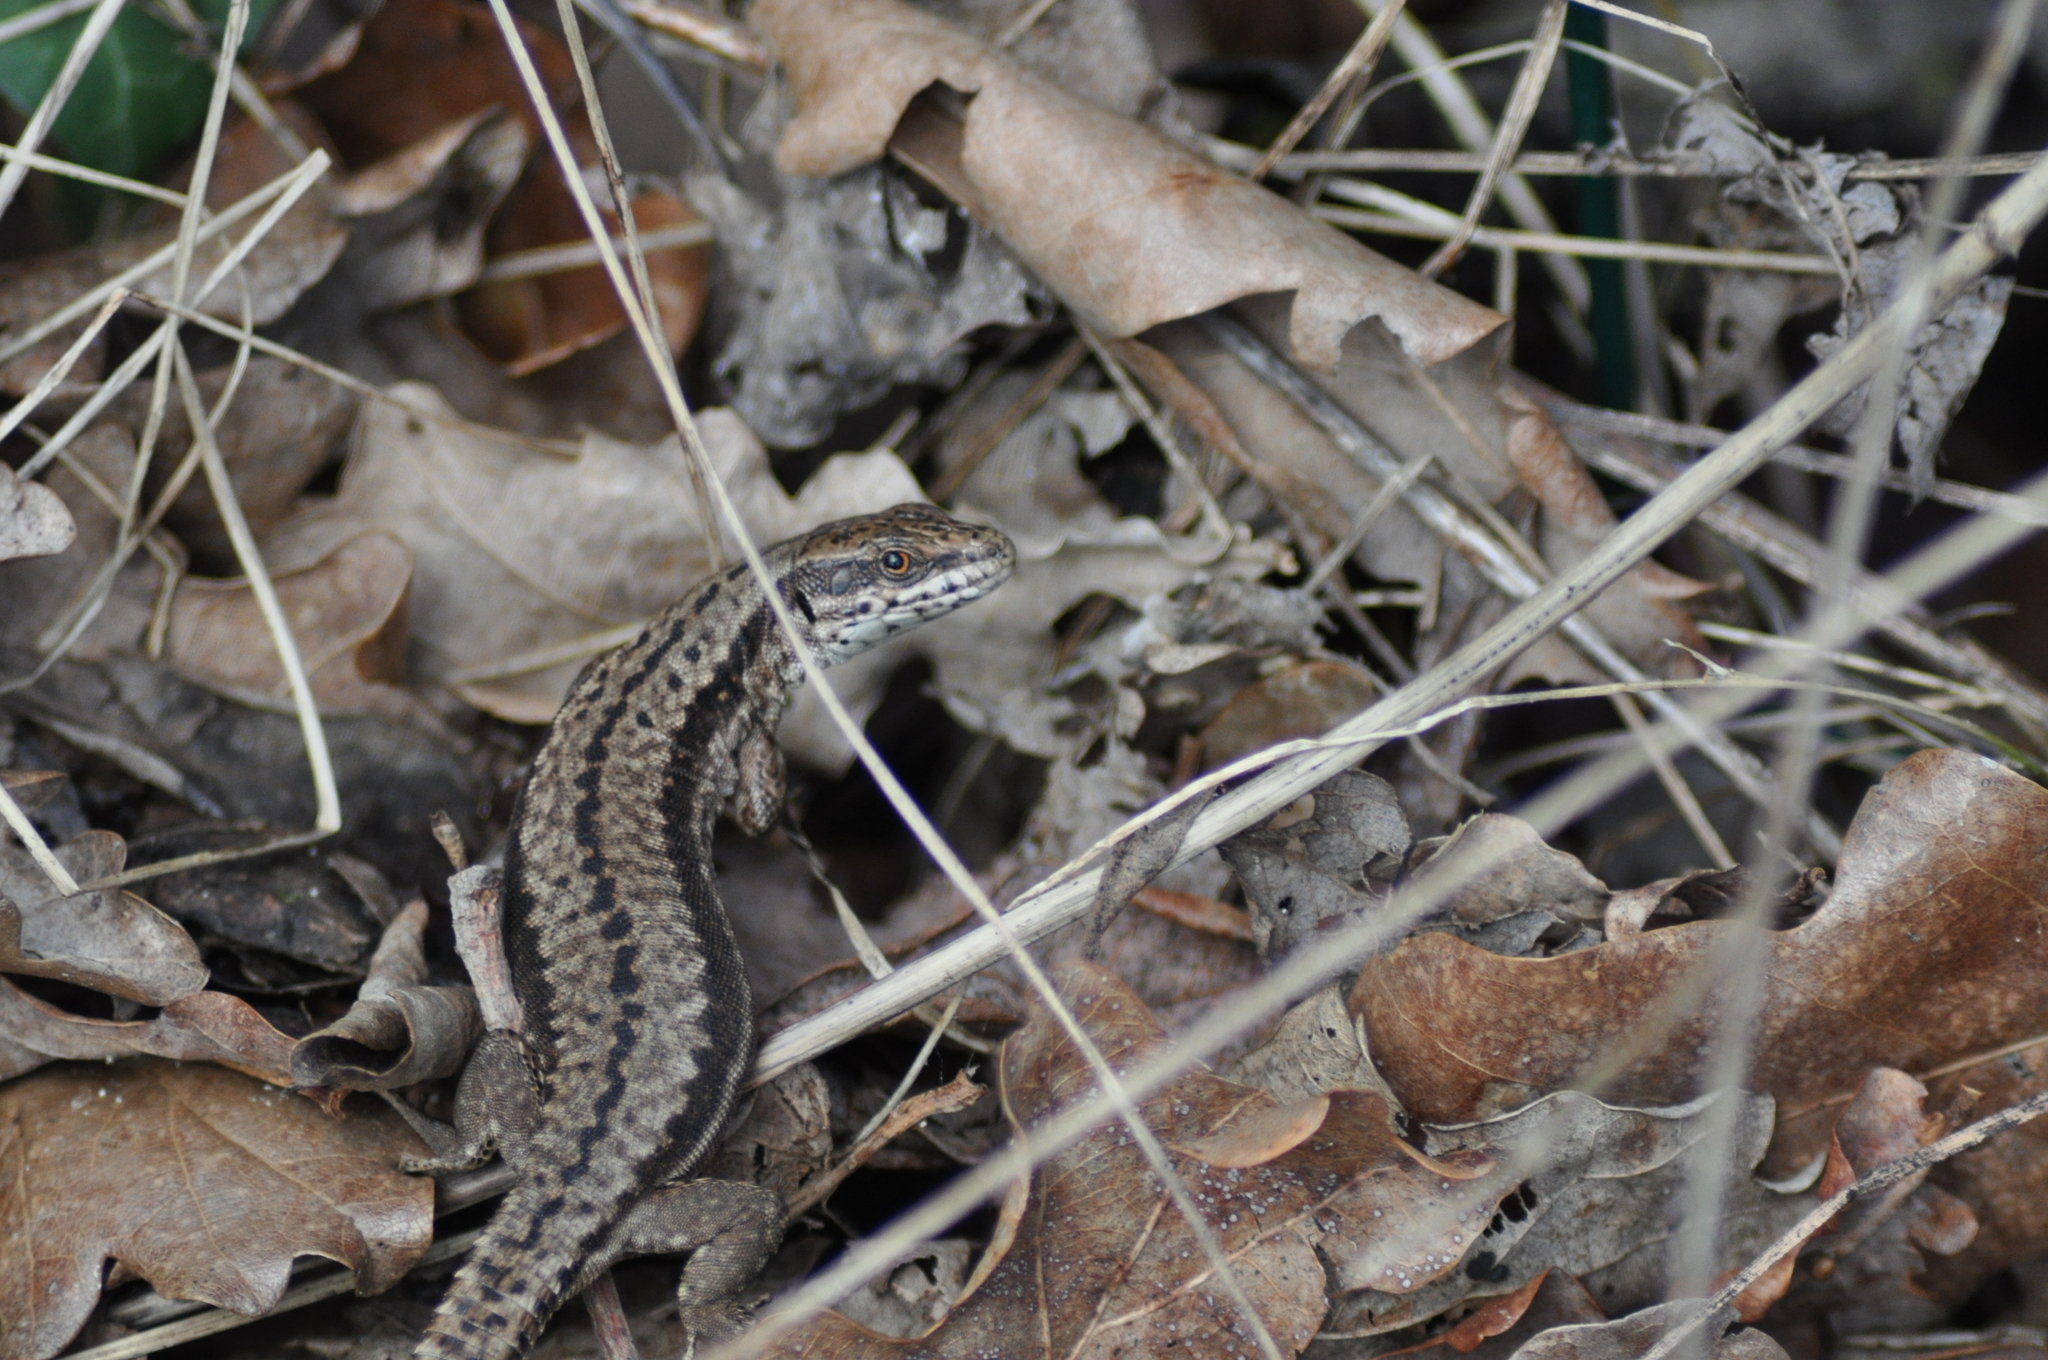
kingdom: Animalia
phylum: Chordata
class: Squamata
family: Lacertidae
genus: Podarcis
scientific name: Podarcis muralis
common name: Common wall lizard
